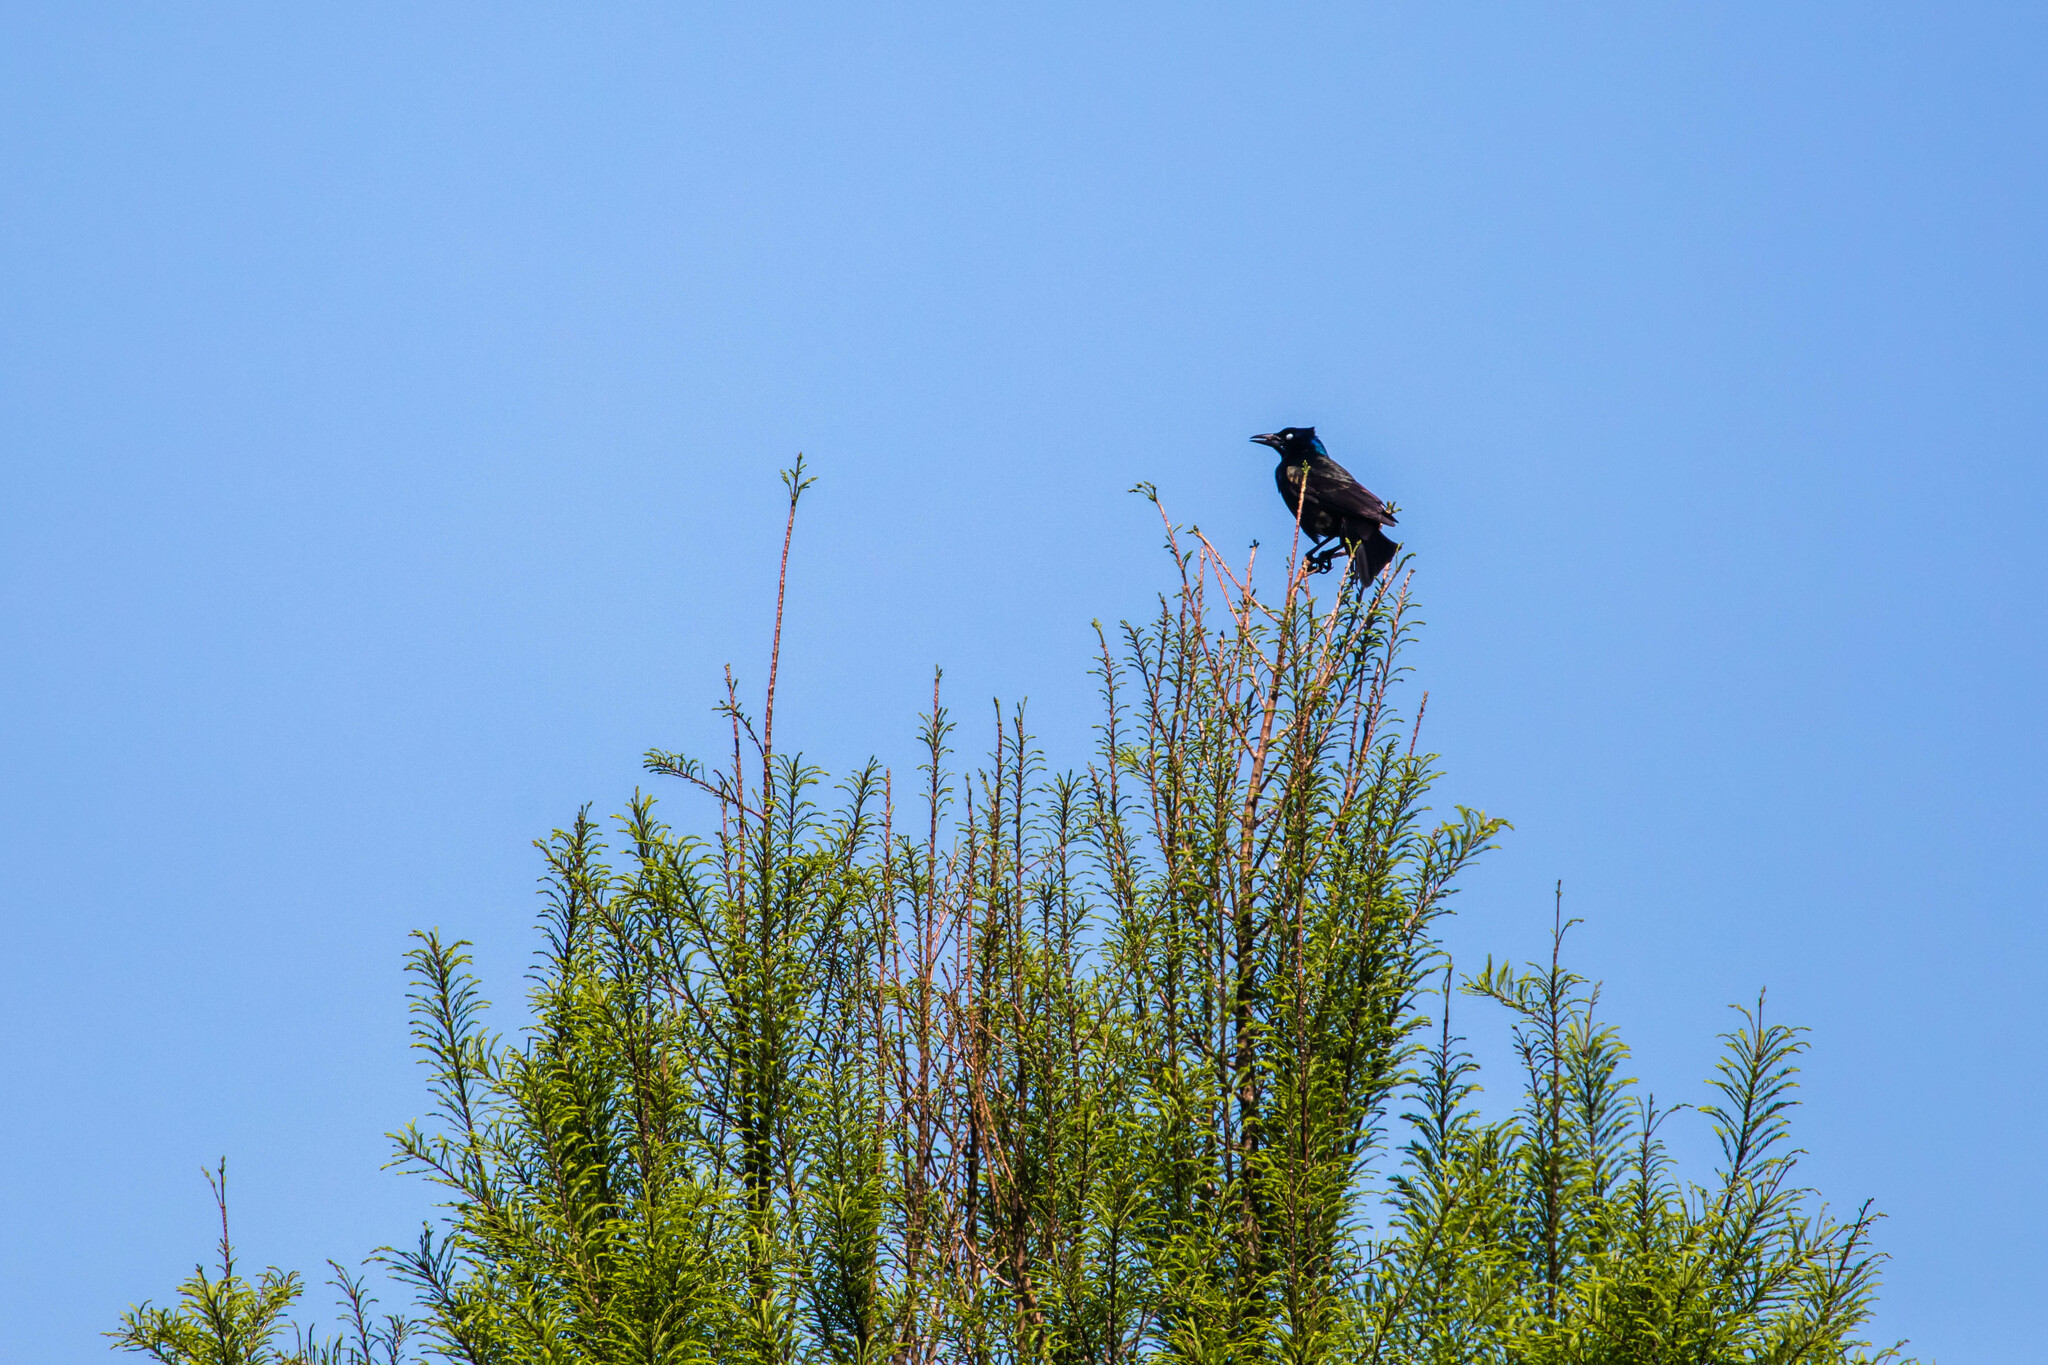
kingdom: Animalia
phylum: Chordata
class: Aves
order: Passeriformes
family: Icteridae
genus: Quiscalus
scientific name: Quiscalus quiscula
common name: Common grackle
